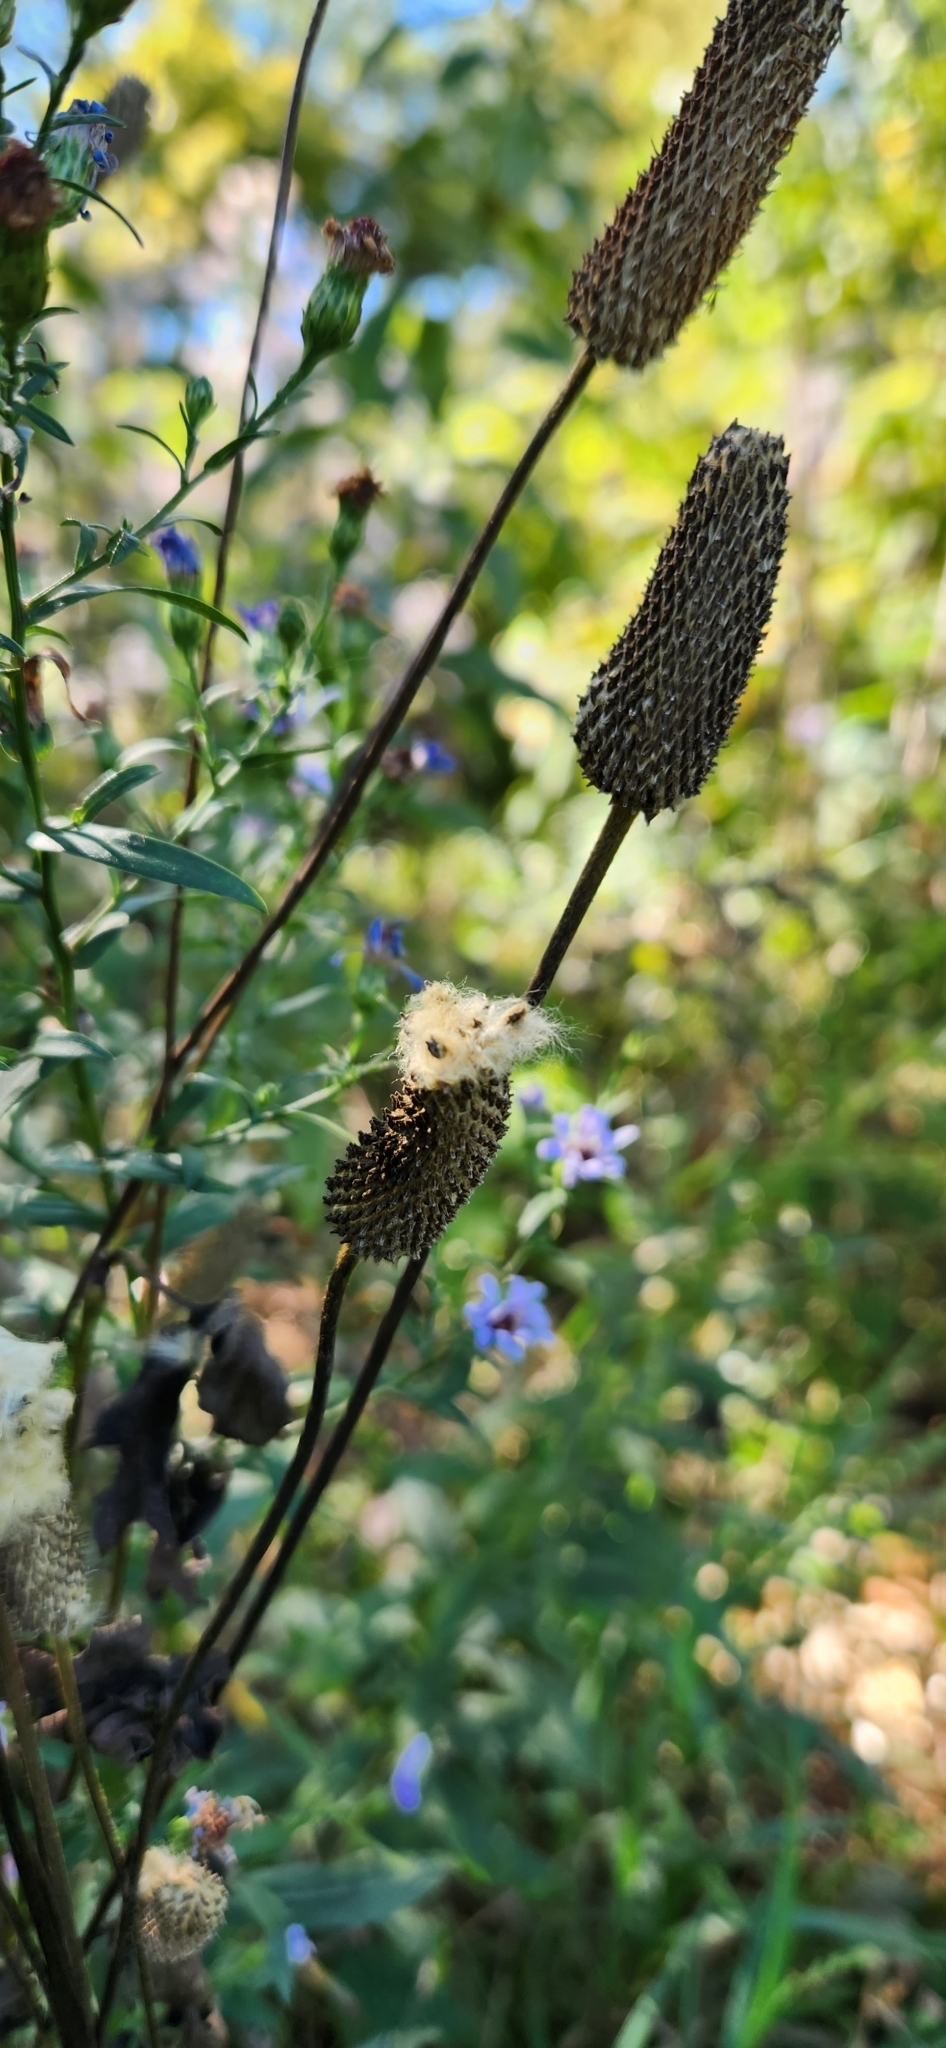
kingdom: Plantae
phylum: Tracheophyta
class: Magnoliopsida
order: Ranunculales
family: Ranunculaceae
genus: Anemone
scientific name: Anemone virginiana
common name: Tall anemone
